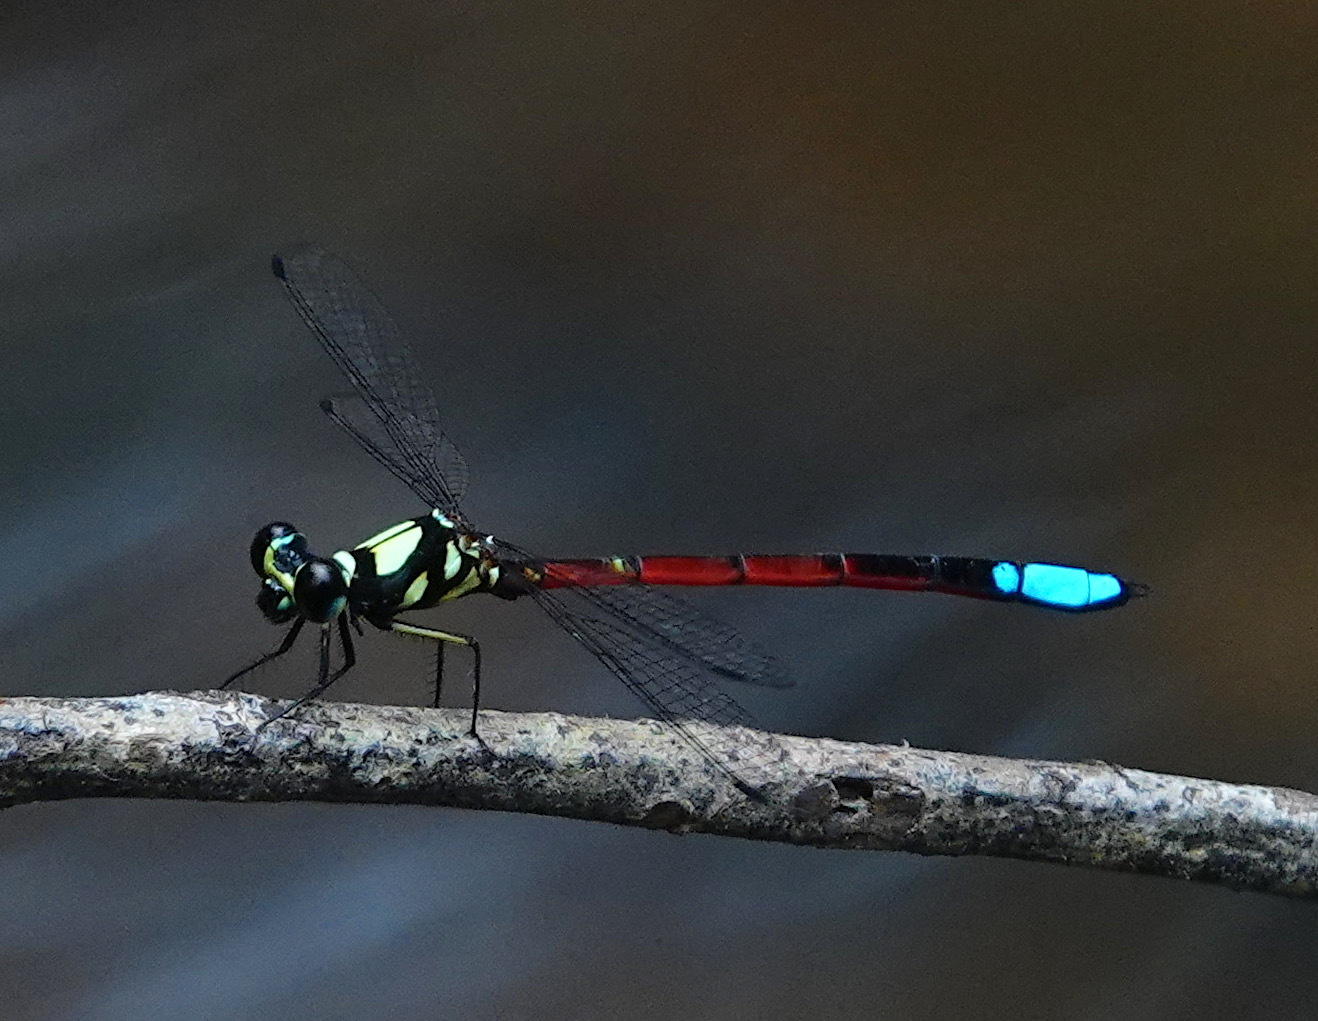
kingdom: Animalia
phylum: Arthropoda
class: Insecta
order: Odonata
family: Philosinidae
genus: Rhinagrion
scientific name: Rhinagrion elopurae
